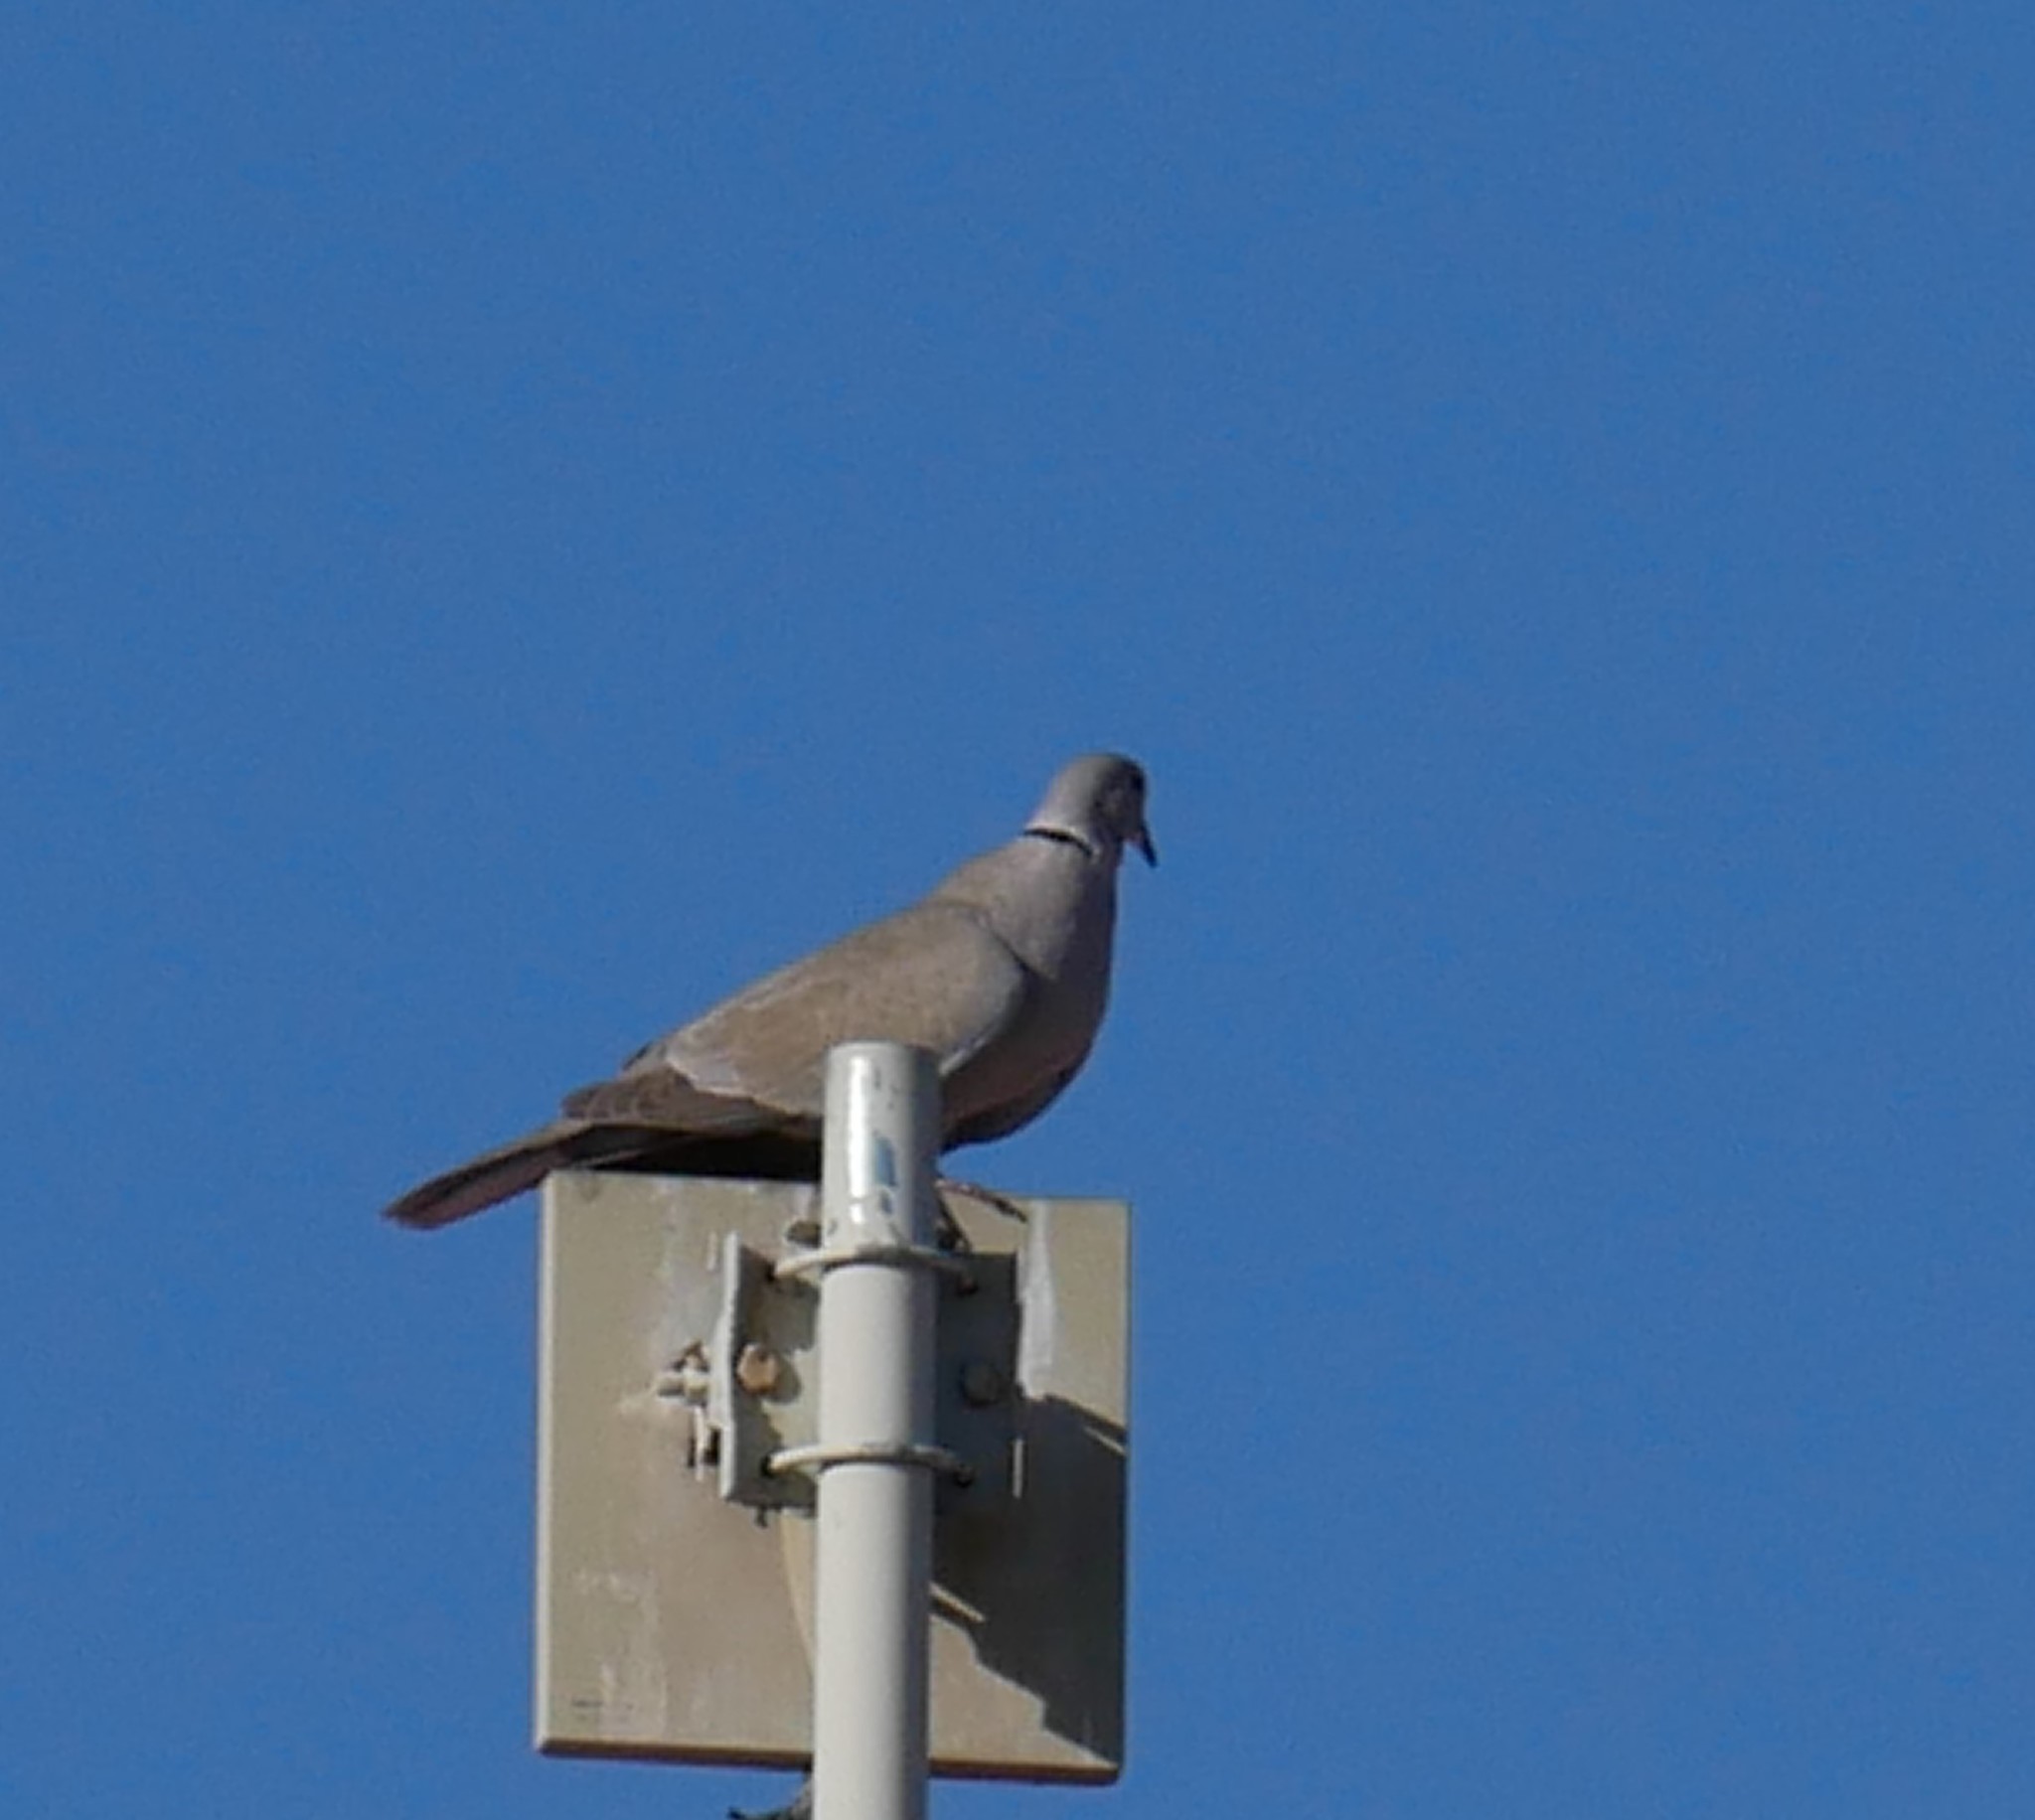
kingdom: Animalia
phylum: Chordata
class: Aves
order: Columbiformes
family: Columbidae
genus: Streptopelia
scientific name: Streptopelia decaocto
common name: Eurasian collared dove
